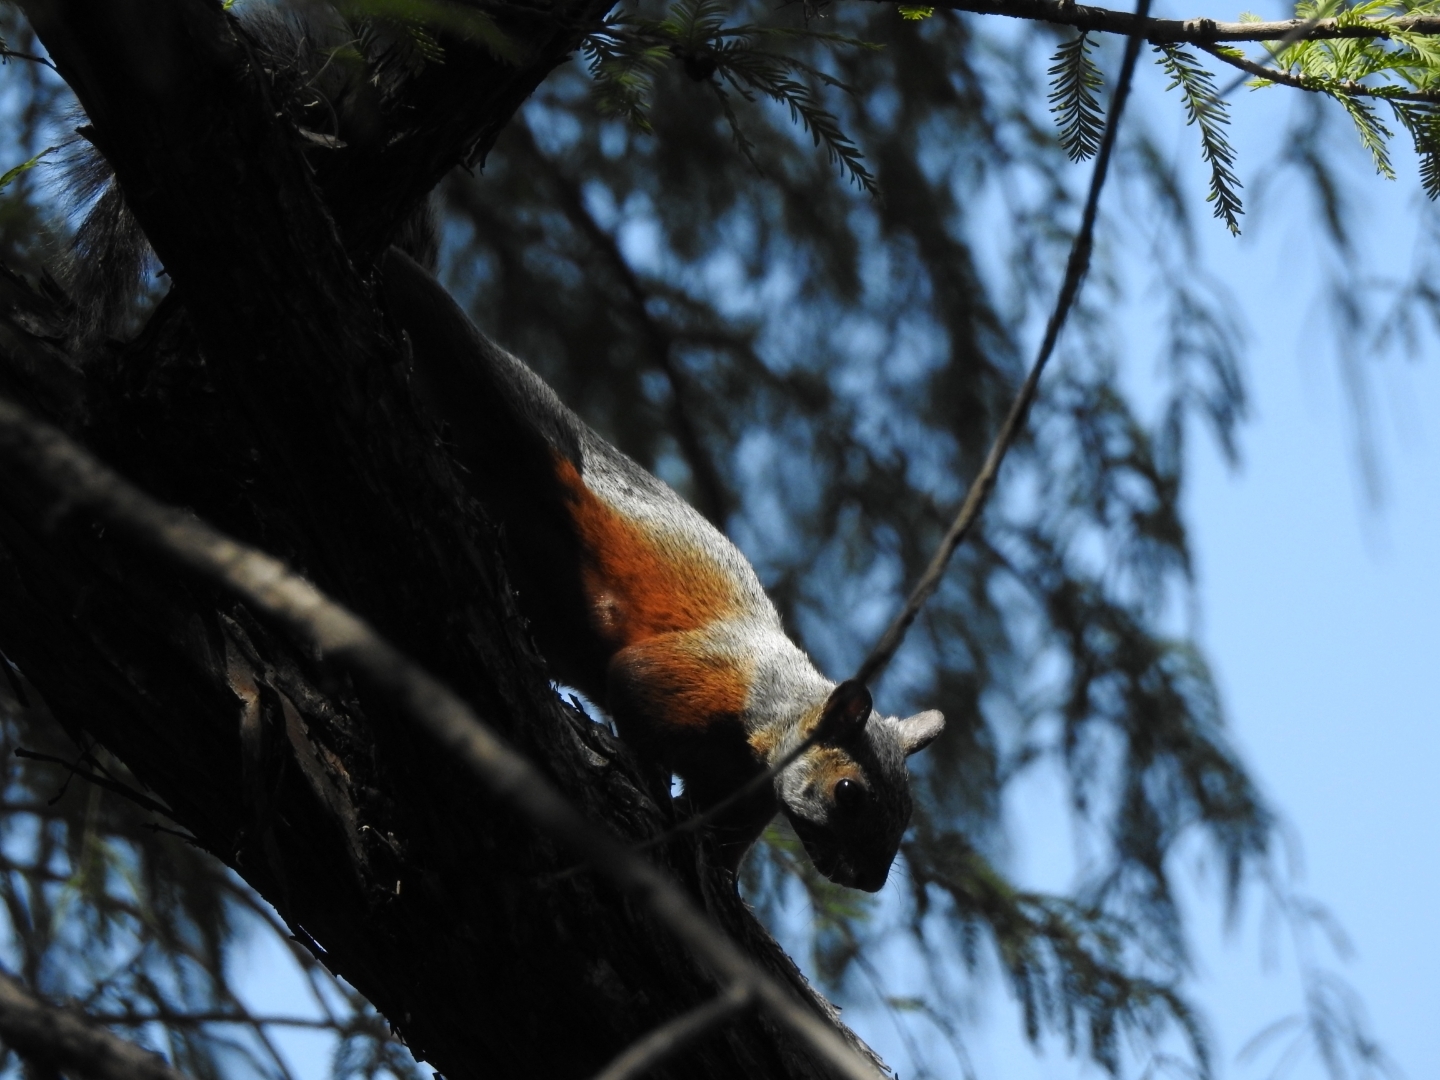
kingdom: Animalia
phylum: Chordata
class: Mammalia
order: Rodentia
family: Sciuridae
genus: Sciurus
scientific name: Sciurus aureogaster
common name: Red-bellied squirrel
